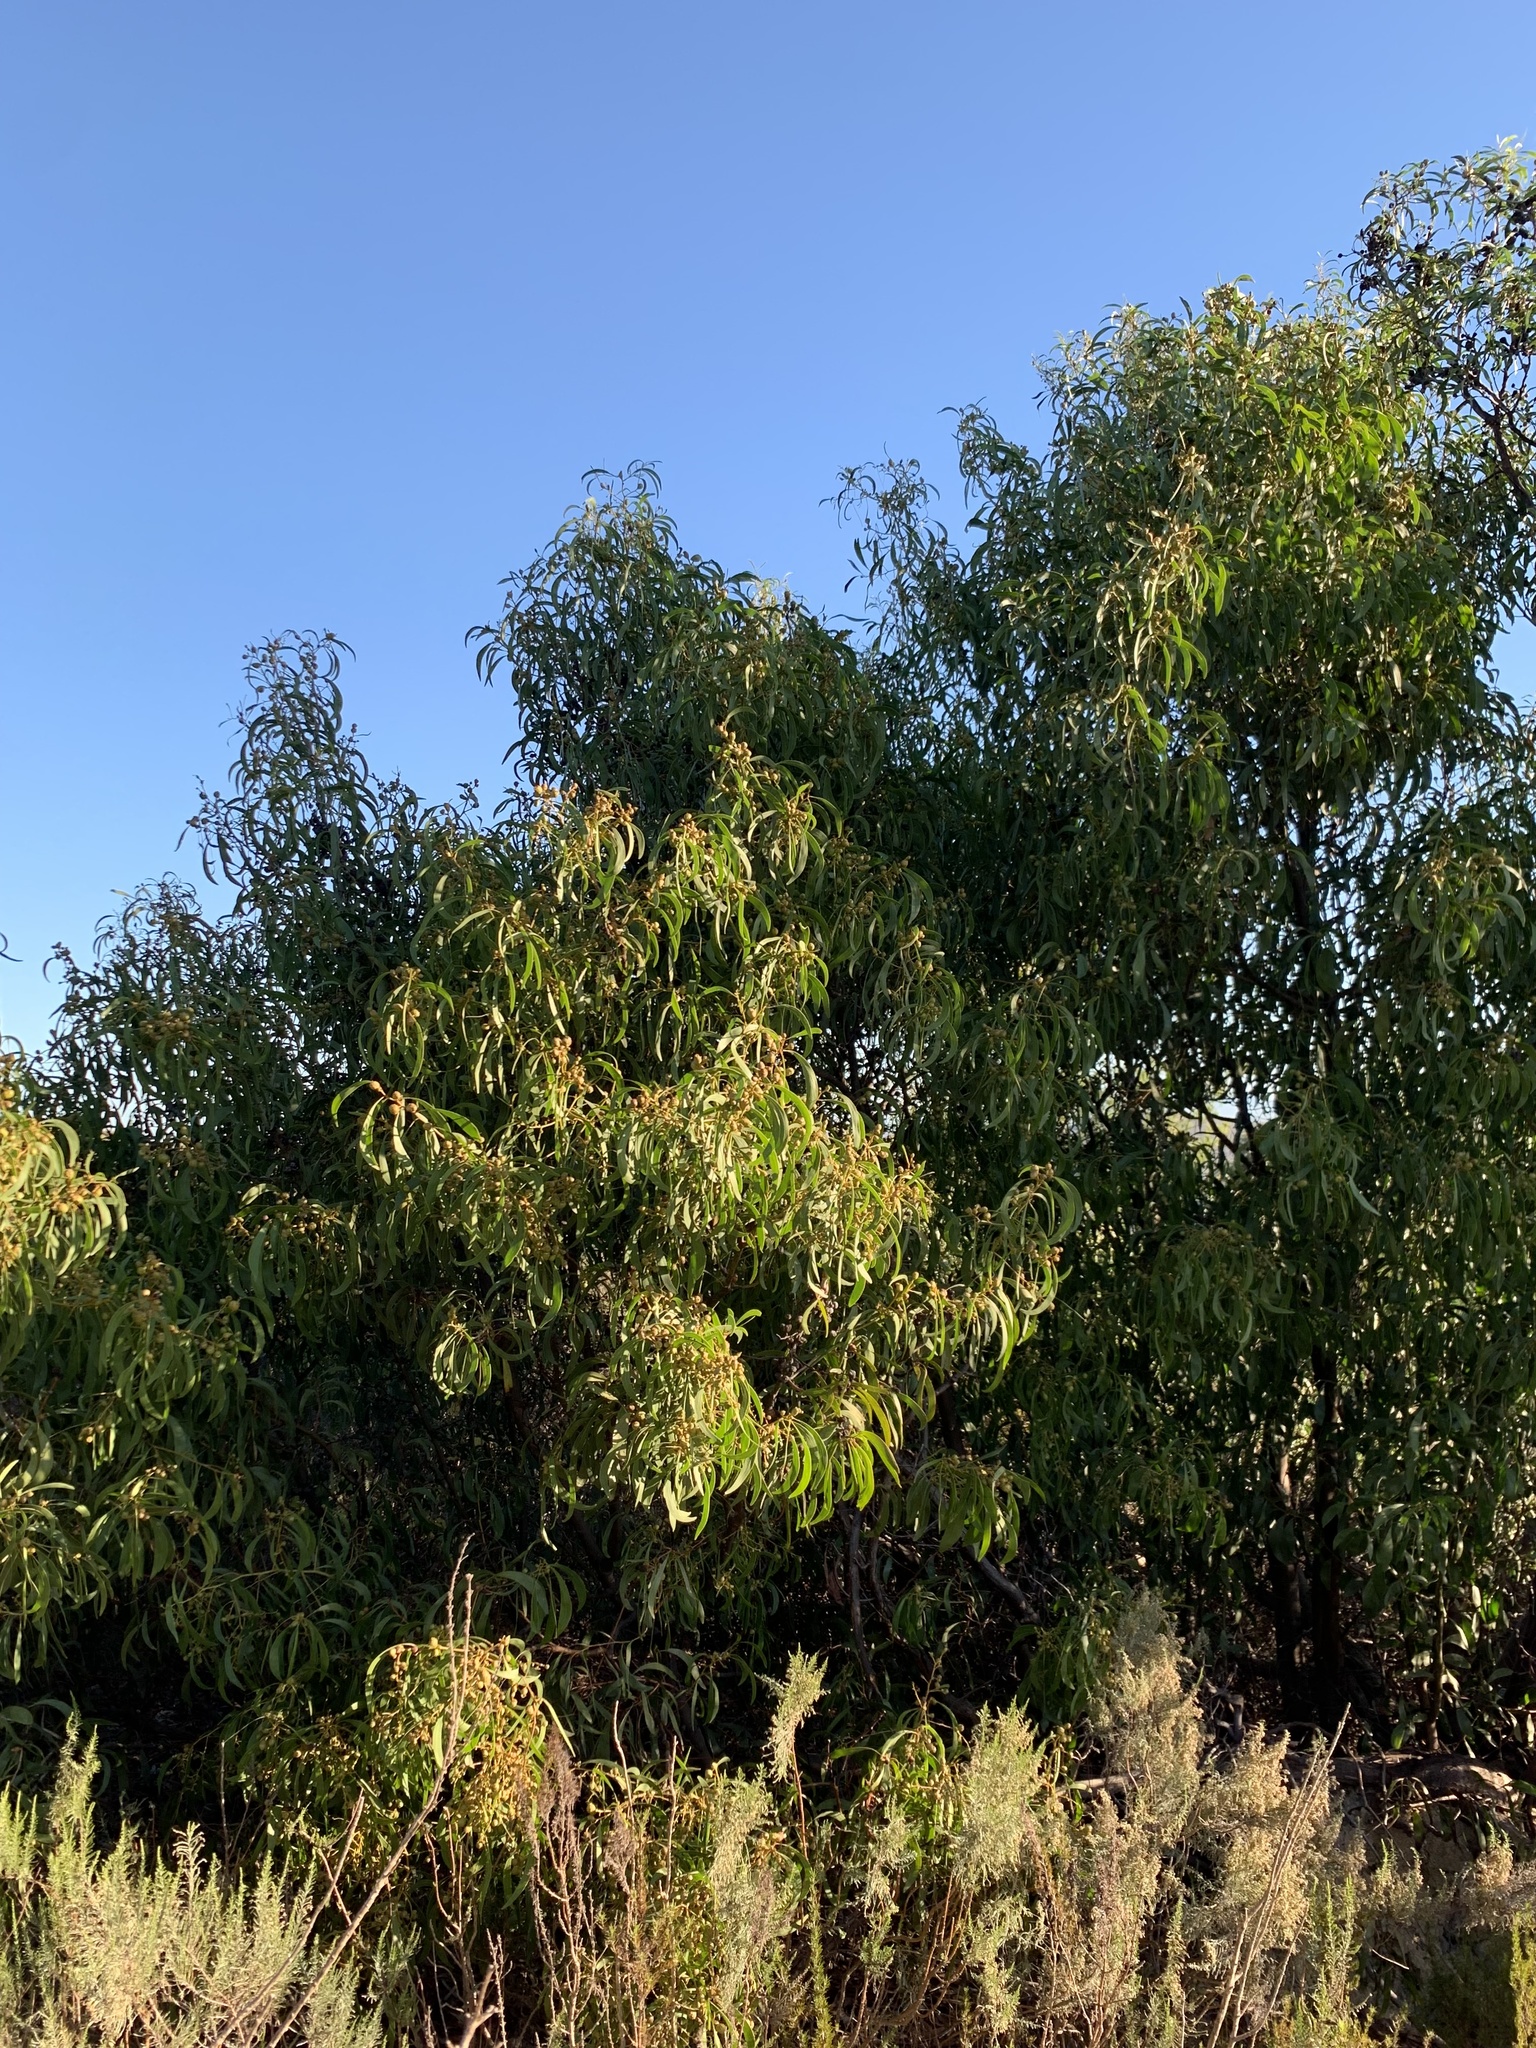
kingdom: Plantae
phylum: Tracheophyta
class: Magnoliopsida
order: Fabales
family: Fabaceae
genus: Acacia
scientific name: Acacia pycnantha
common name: Golden wattle
